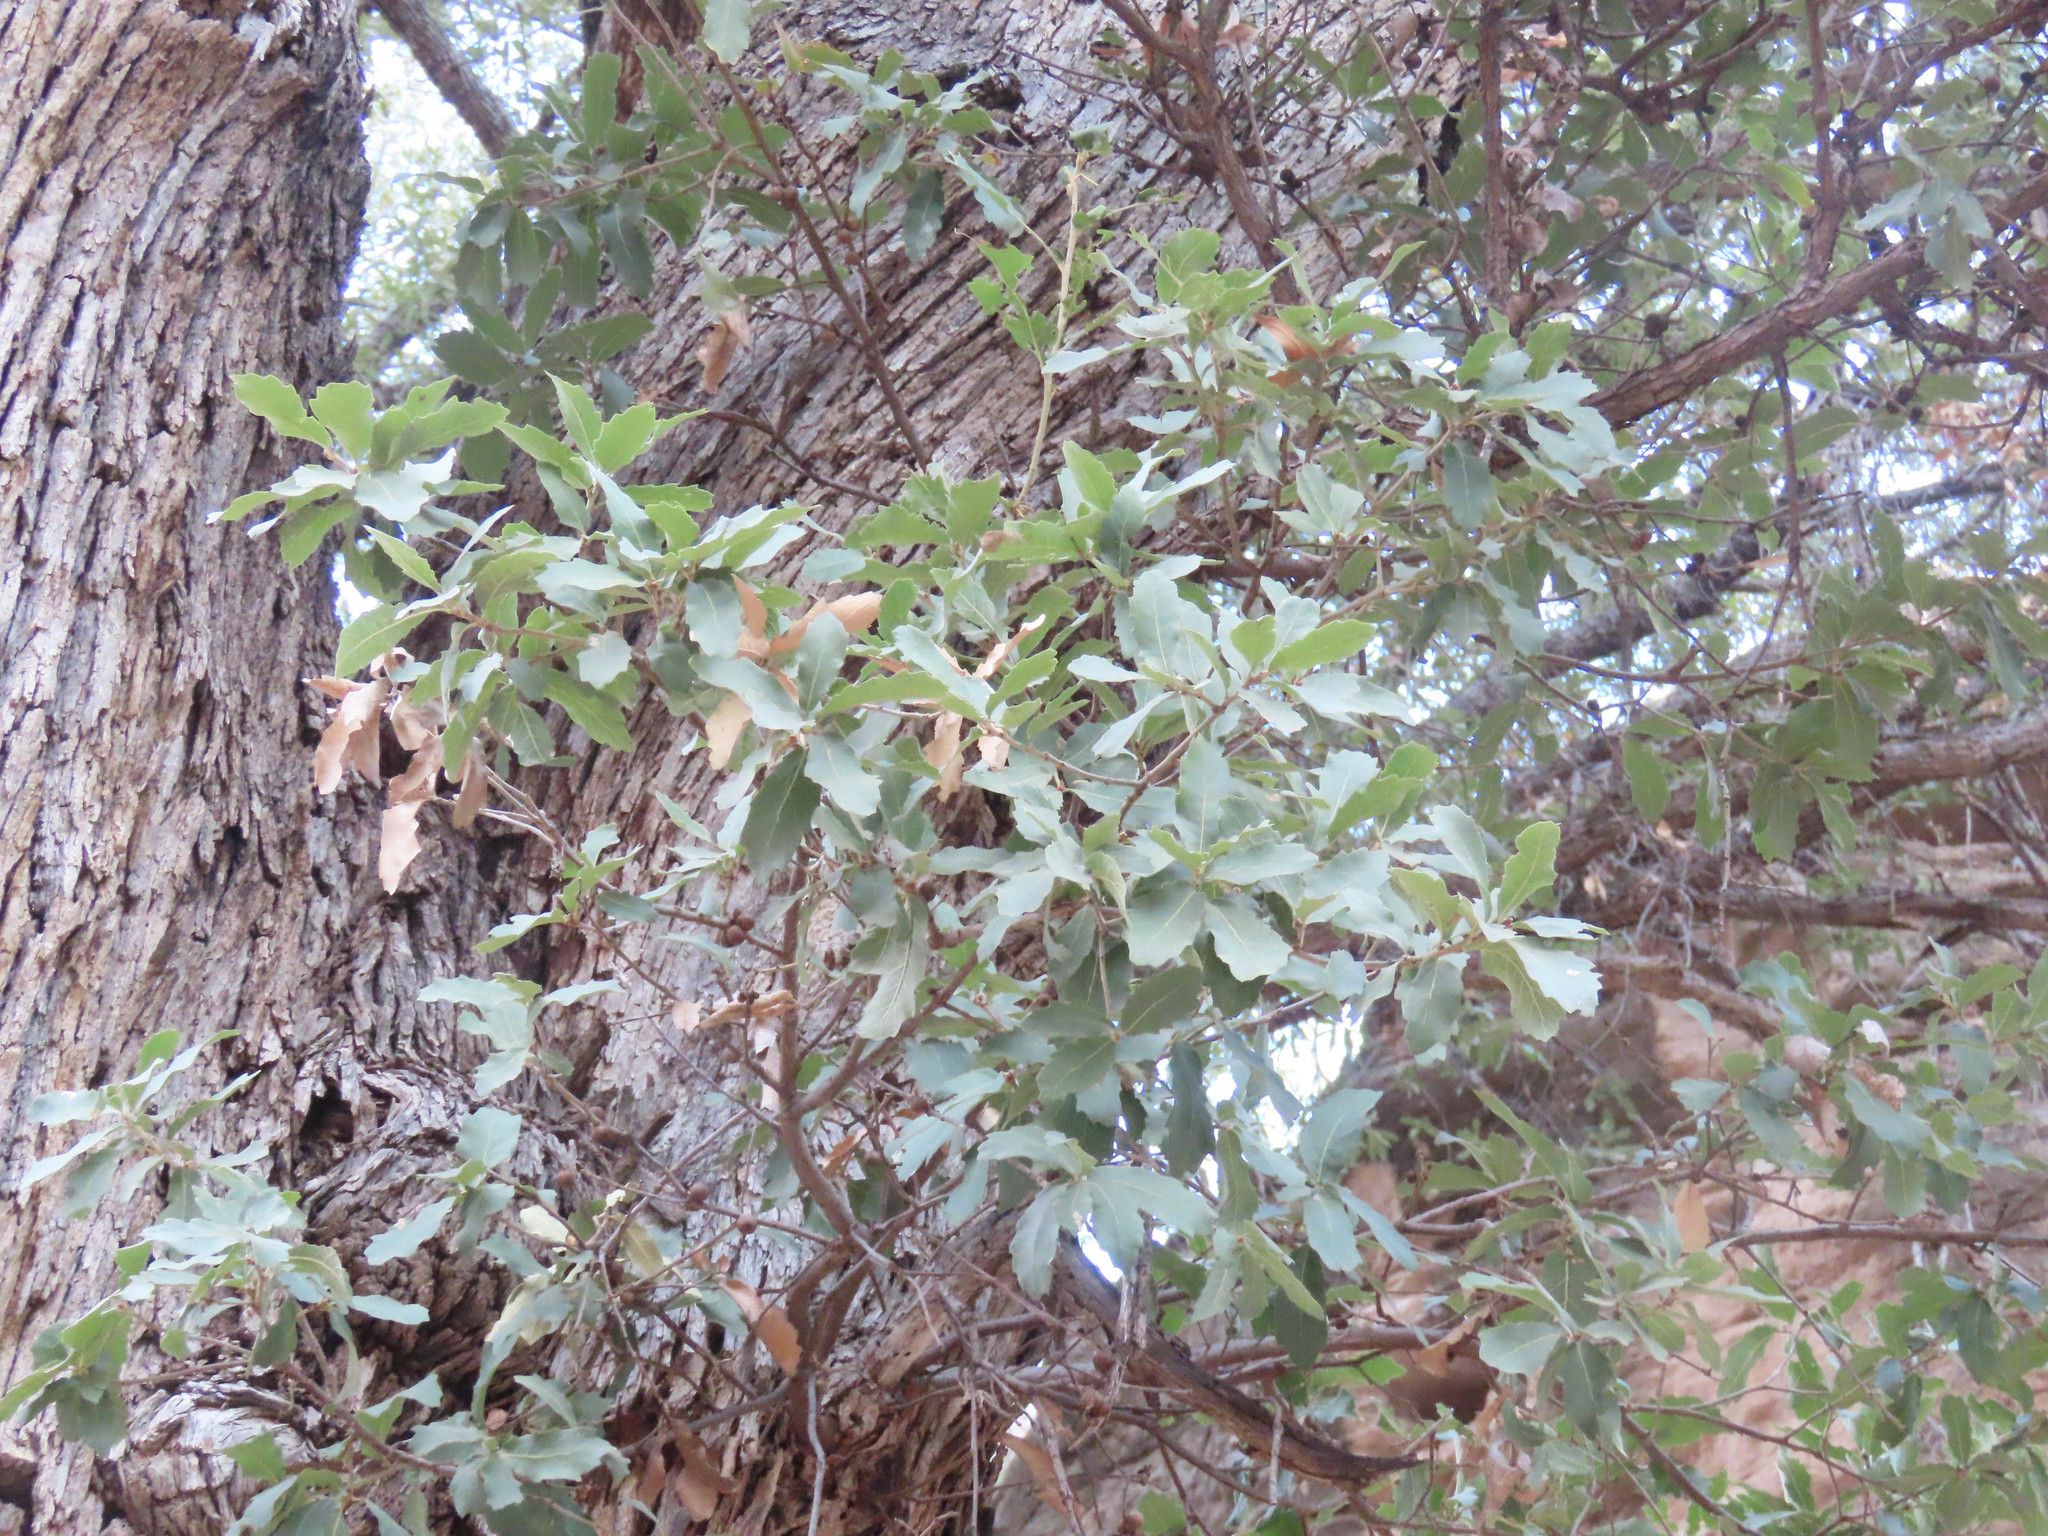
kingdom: Plantae
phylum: Tracheophyta
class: Magnoliopsida
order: Fagales
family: Fagaceae
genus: Quercus
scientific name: Quercus arizonica
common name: Arizona white oak
